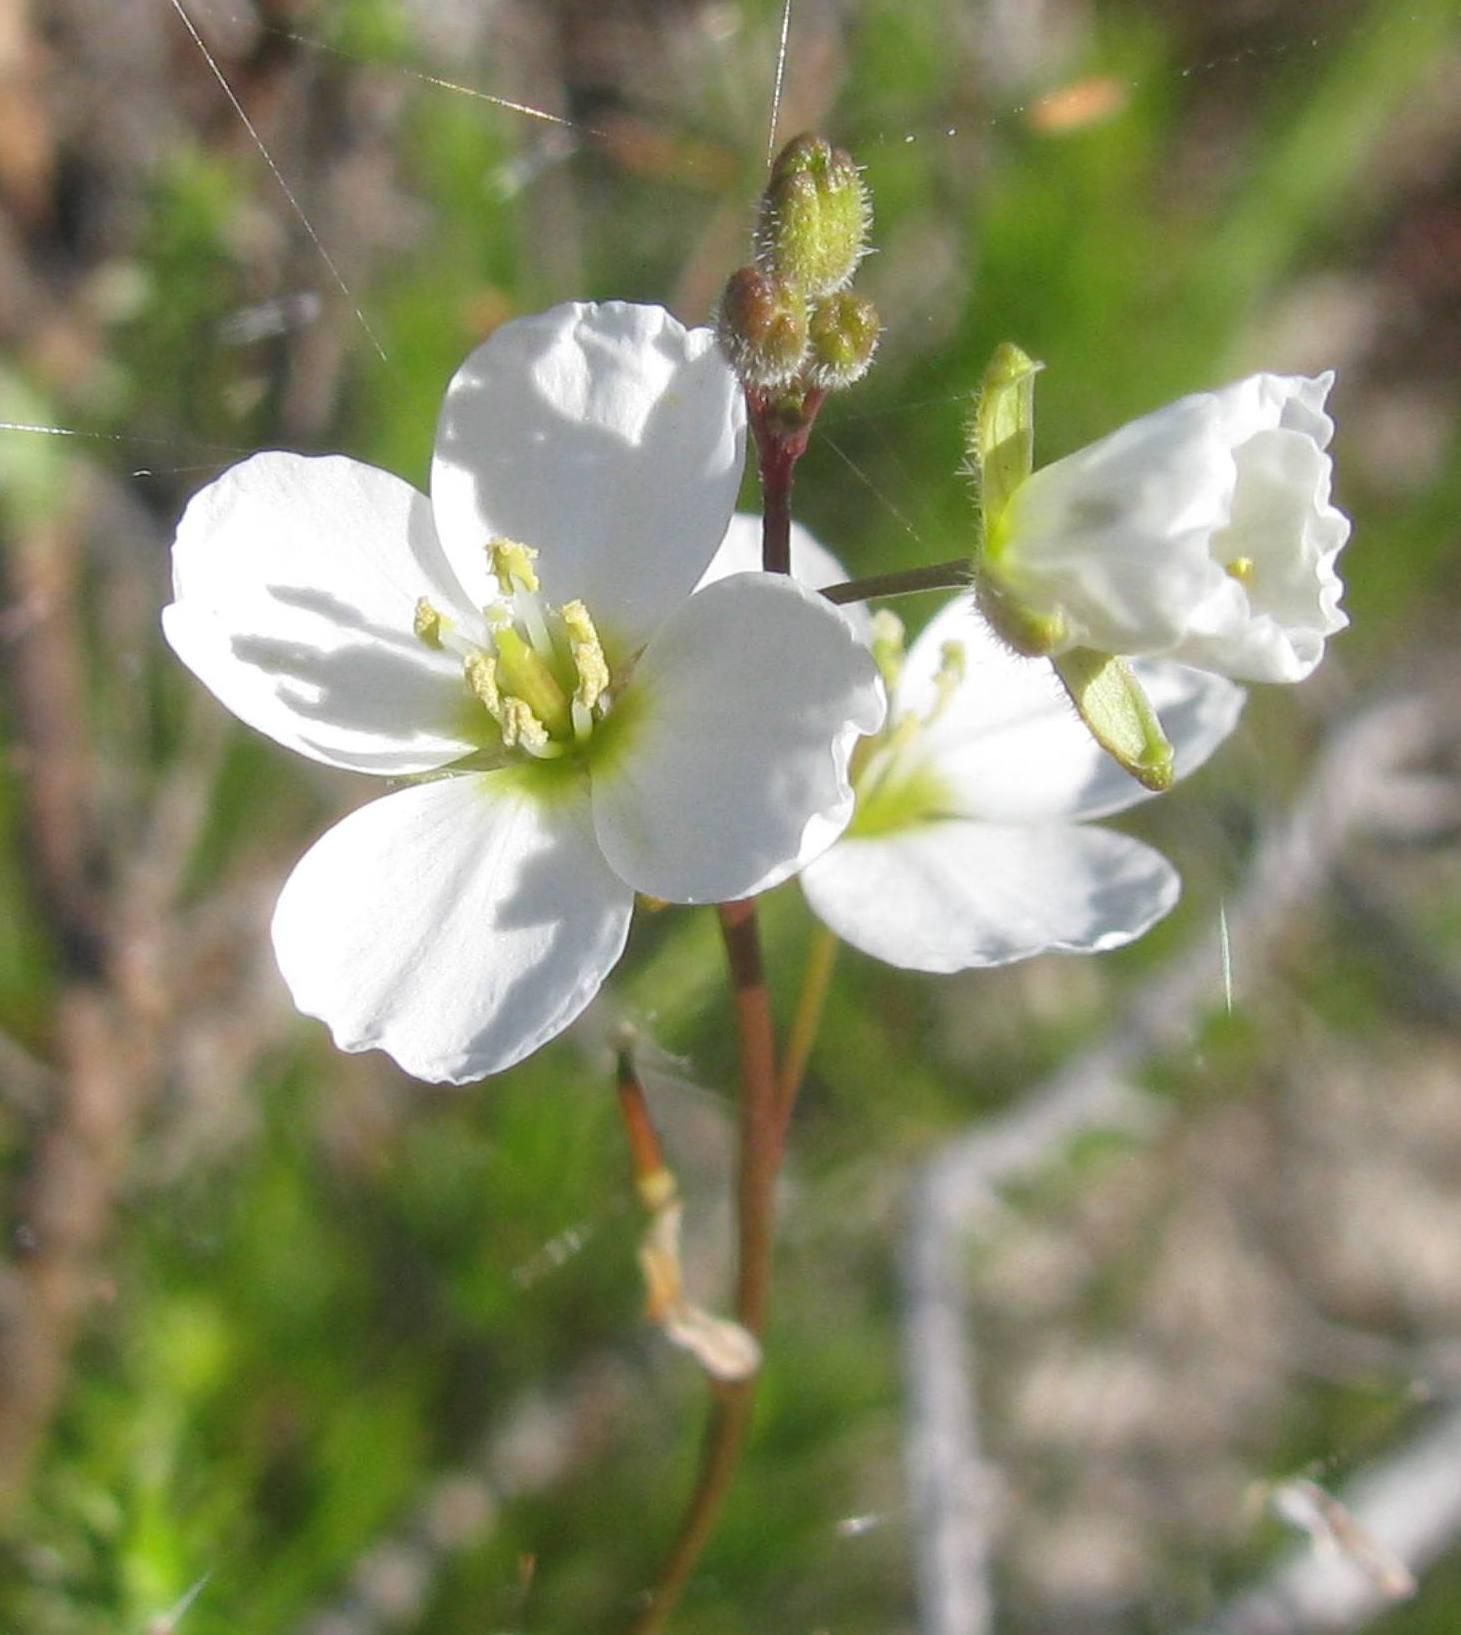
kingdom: Plantae
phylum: Tracheophyta
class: Magnoliopsida
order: Brassicales
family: Brassicaceae
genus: Heliophila
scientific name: Heliophila macowaniana
